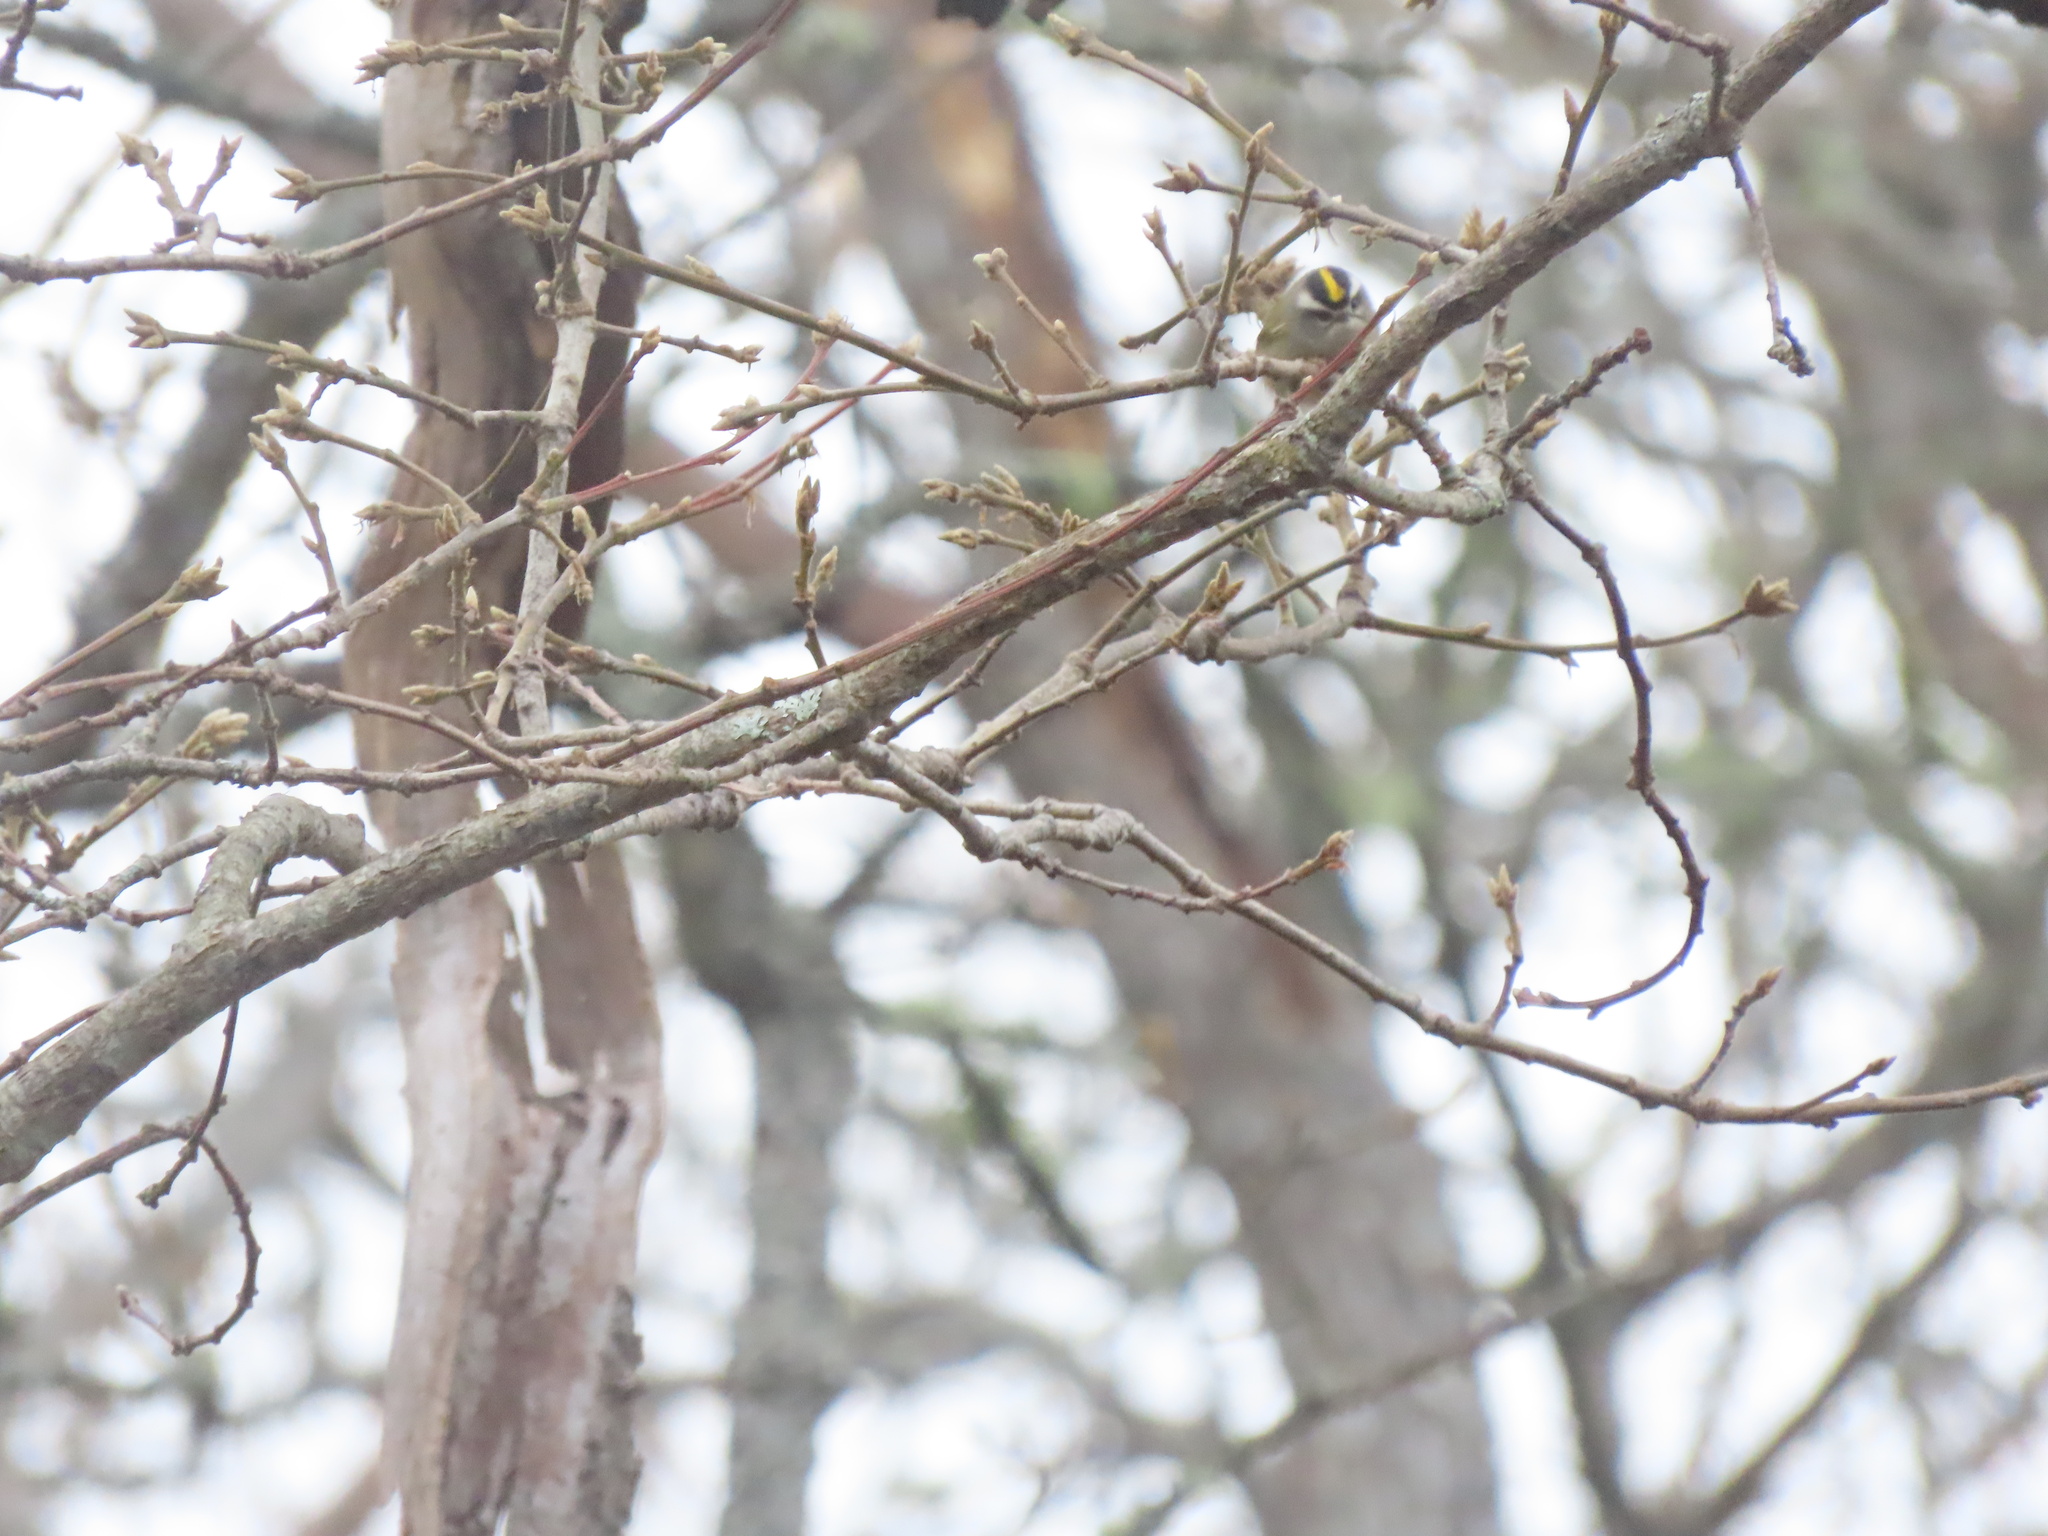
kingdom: Animalia
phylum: Chordata
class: Aves
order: Passeriformes
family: Regulidae
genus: Regulus
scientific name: Regulus satrapa
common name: Golden-crowned kinglet
